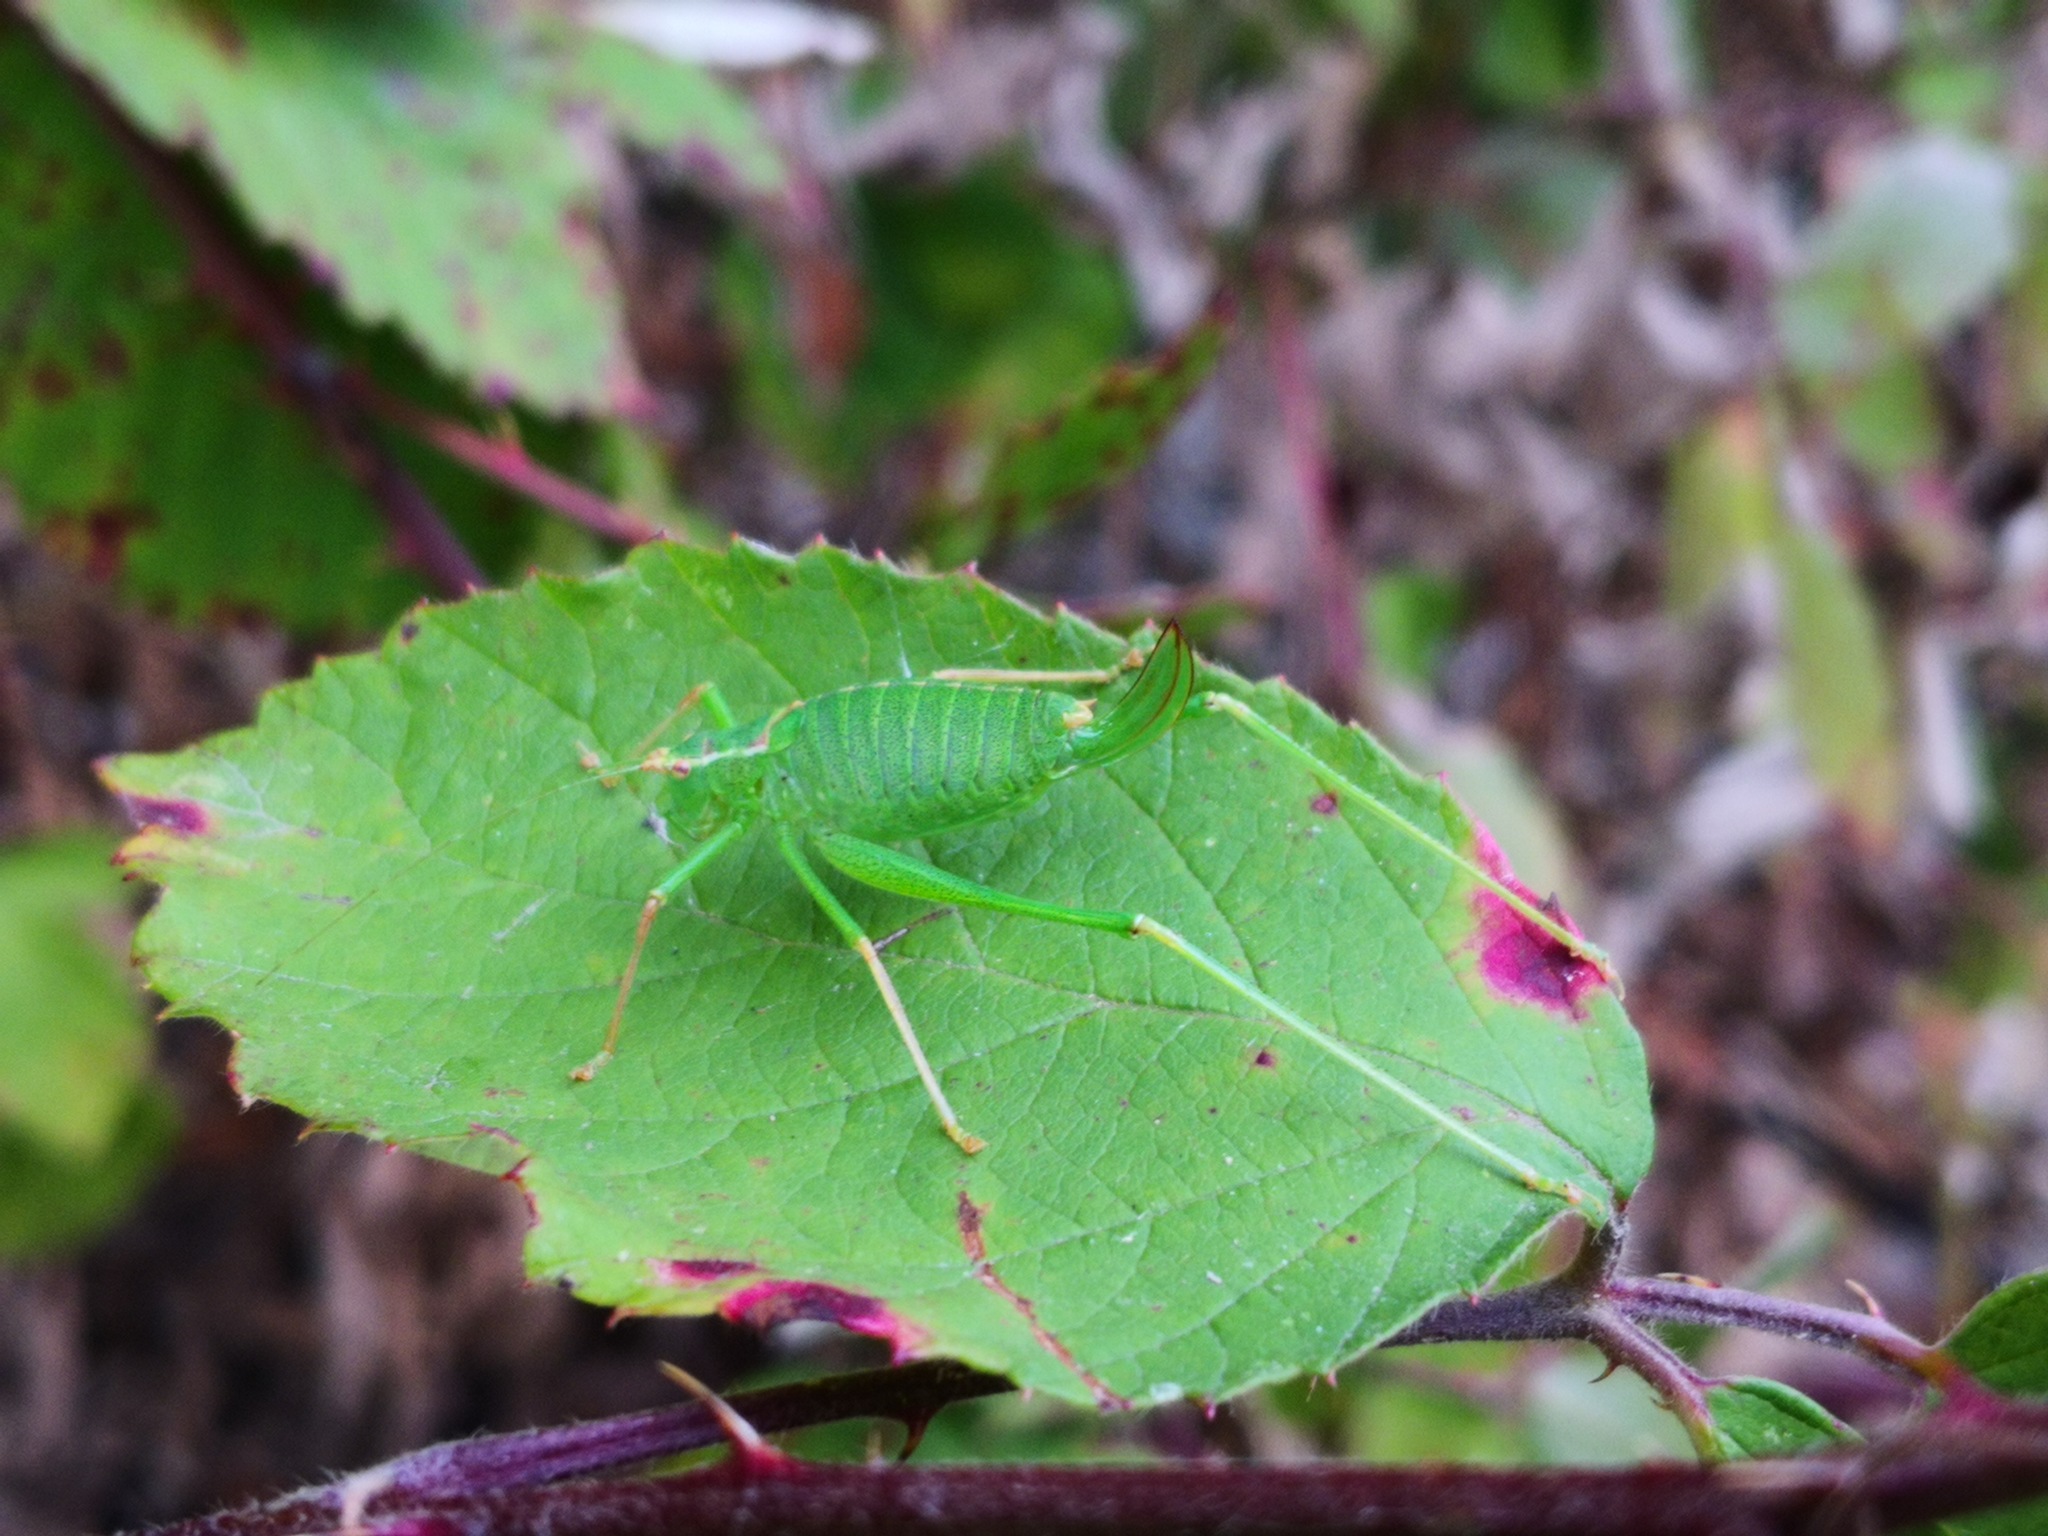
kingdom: Animalia
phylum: Arthropoda
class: Insecta
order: Orthoptera
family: Tettigoniidae
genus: Leptophyes
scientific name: Leptophyes punctatissima
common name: Speckled bush-cricket
